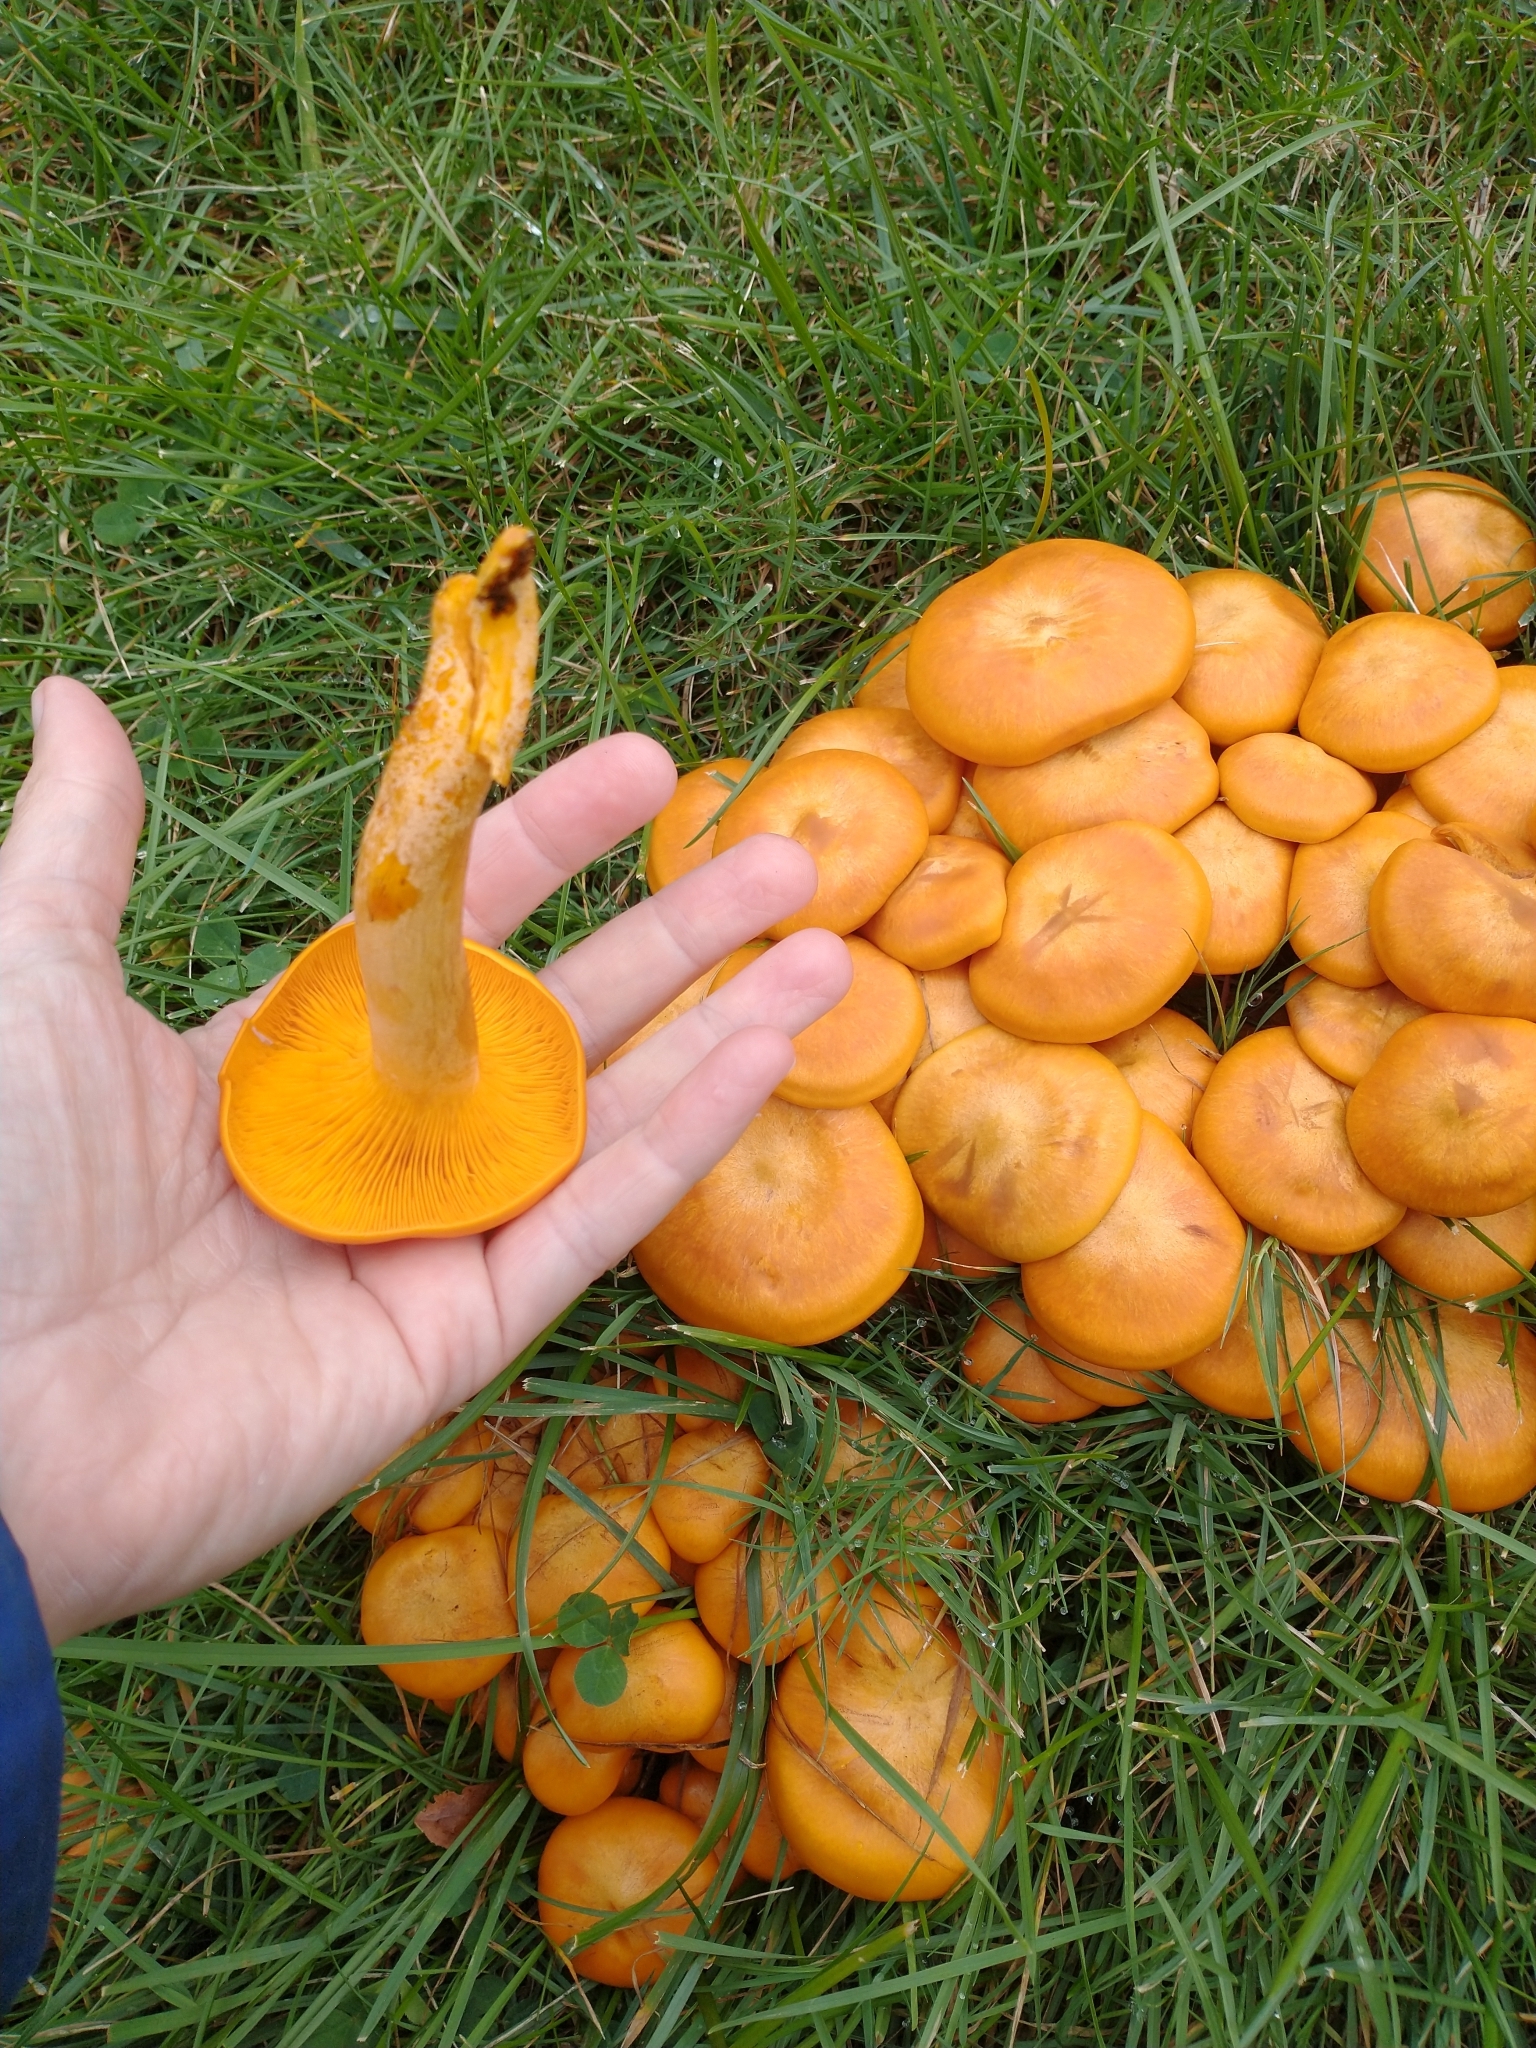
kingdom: Fungi
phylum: Basidiomycota
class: Agaricomycetes
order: Agaricales
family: Omphalotaceae
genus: Omphalotus
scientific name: Omphalotus illudens
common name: Jack o lantern
